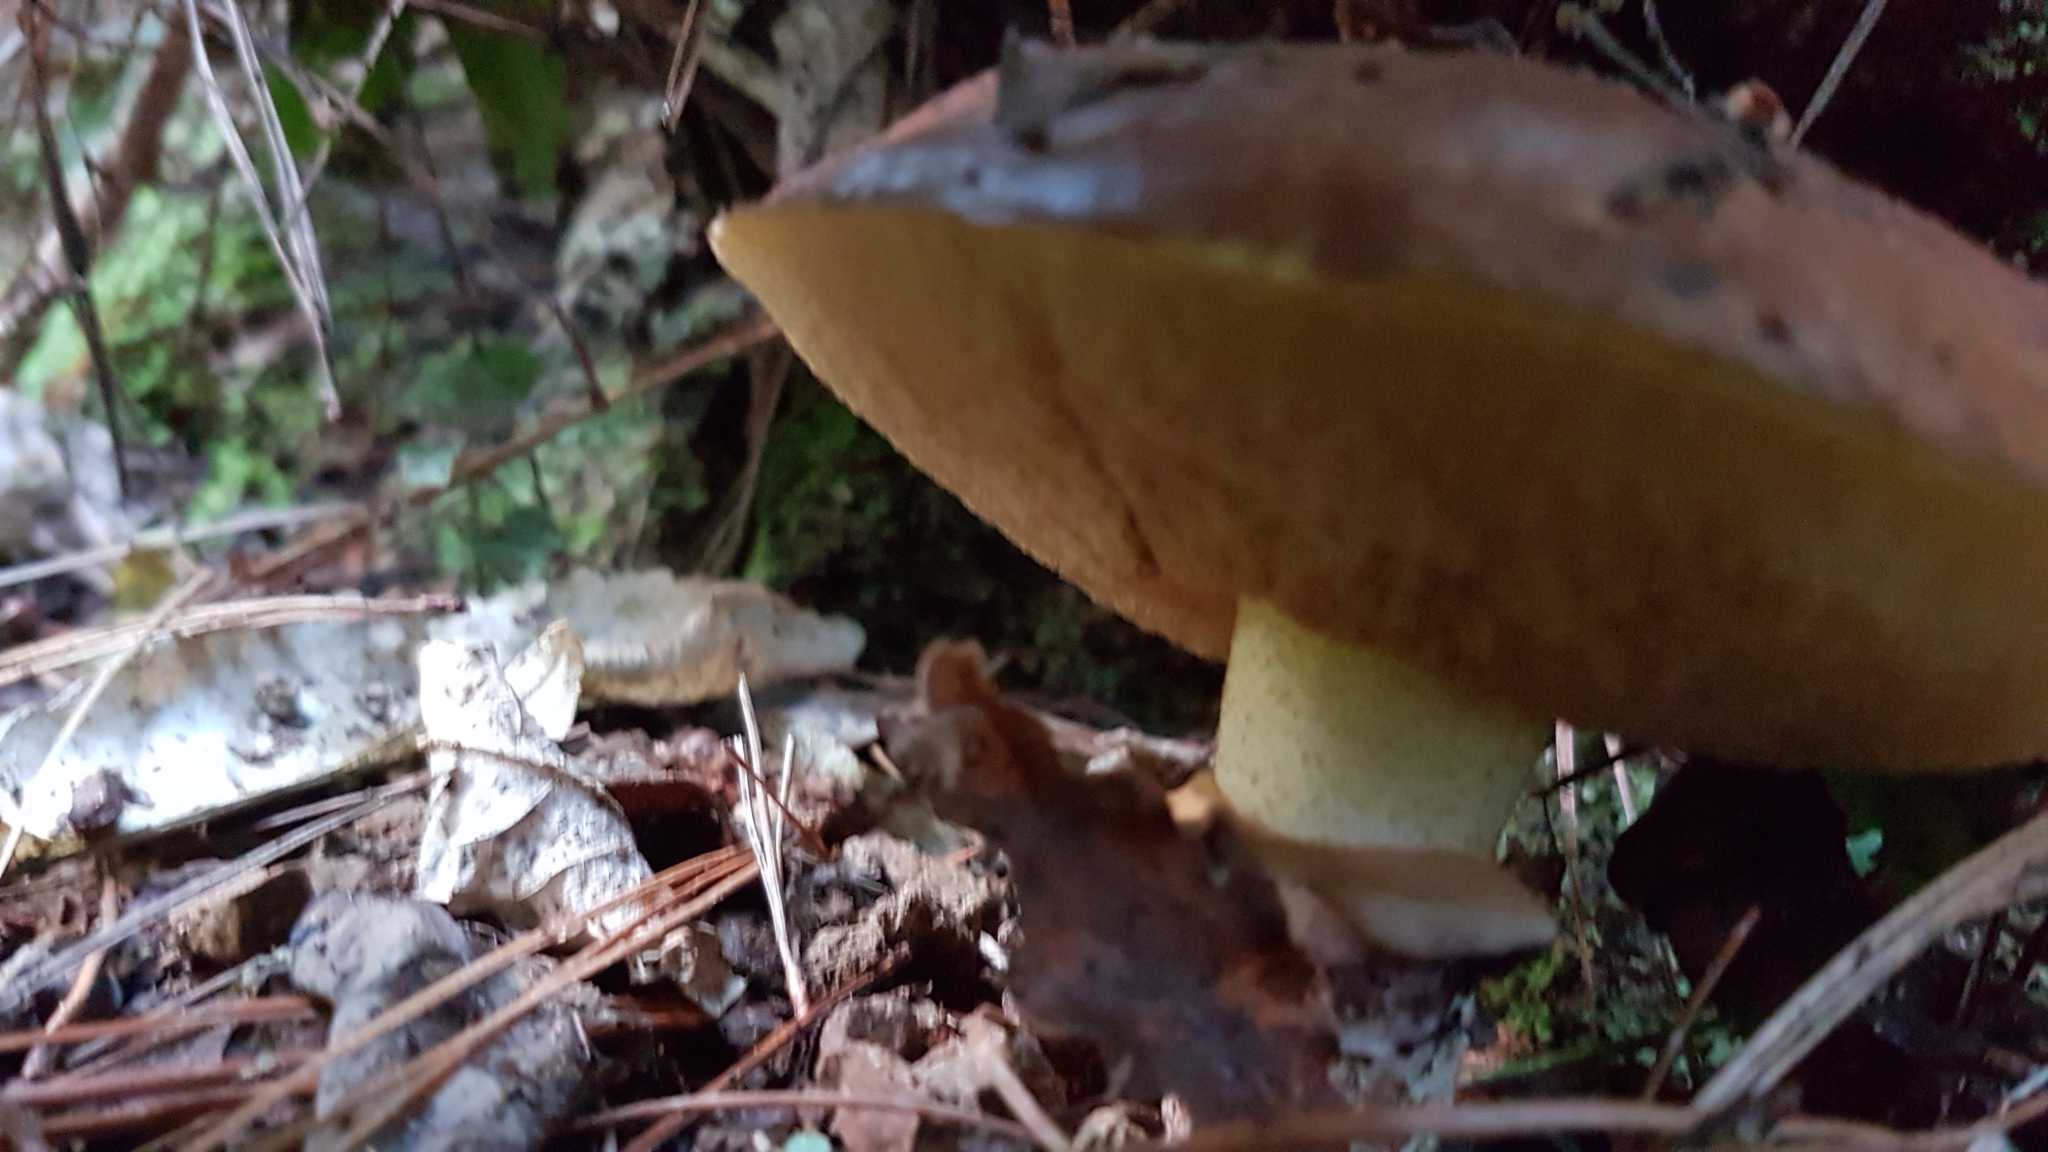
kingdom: Fungi
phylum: Basidiomycota
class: Agaricomycetes
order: Boletales
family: Suillaceae
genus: Suillus
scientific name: Suillus luteus
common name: Slippery jack
